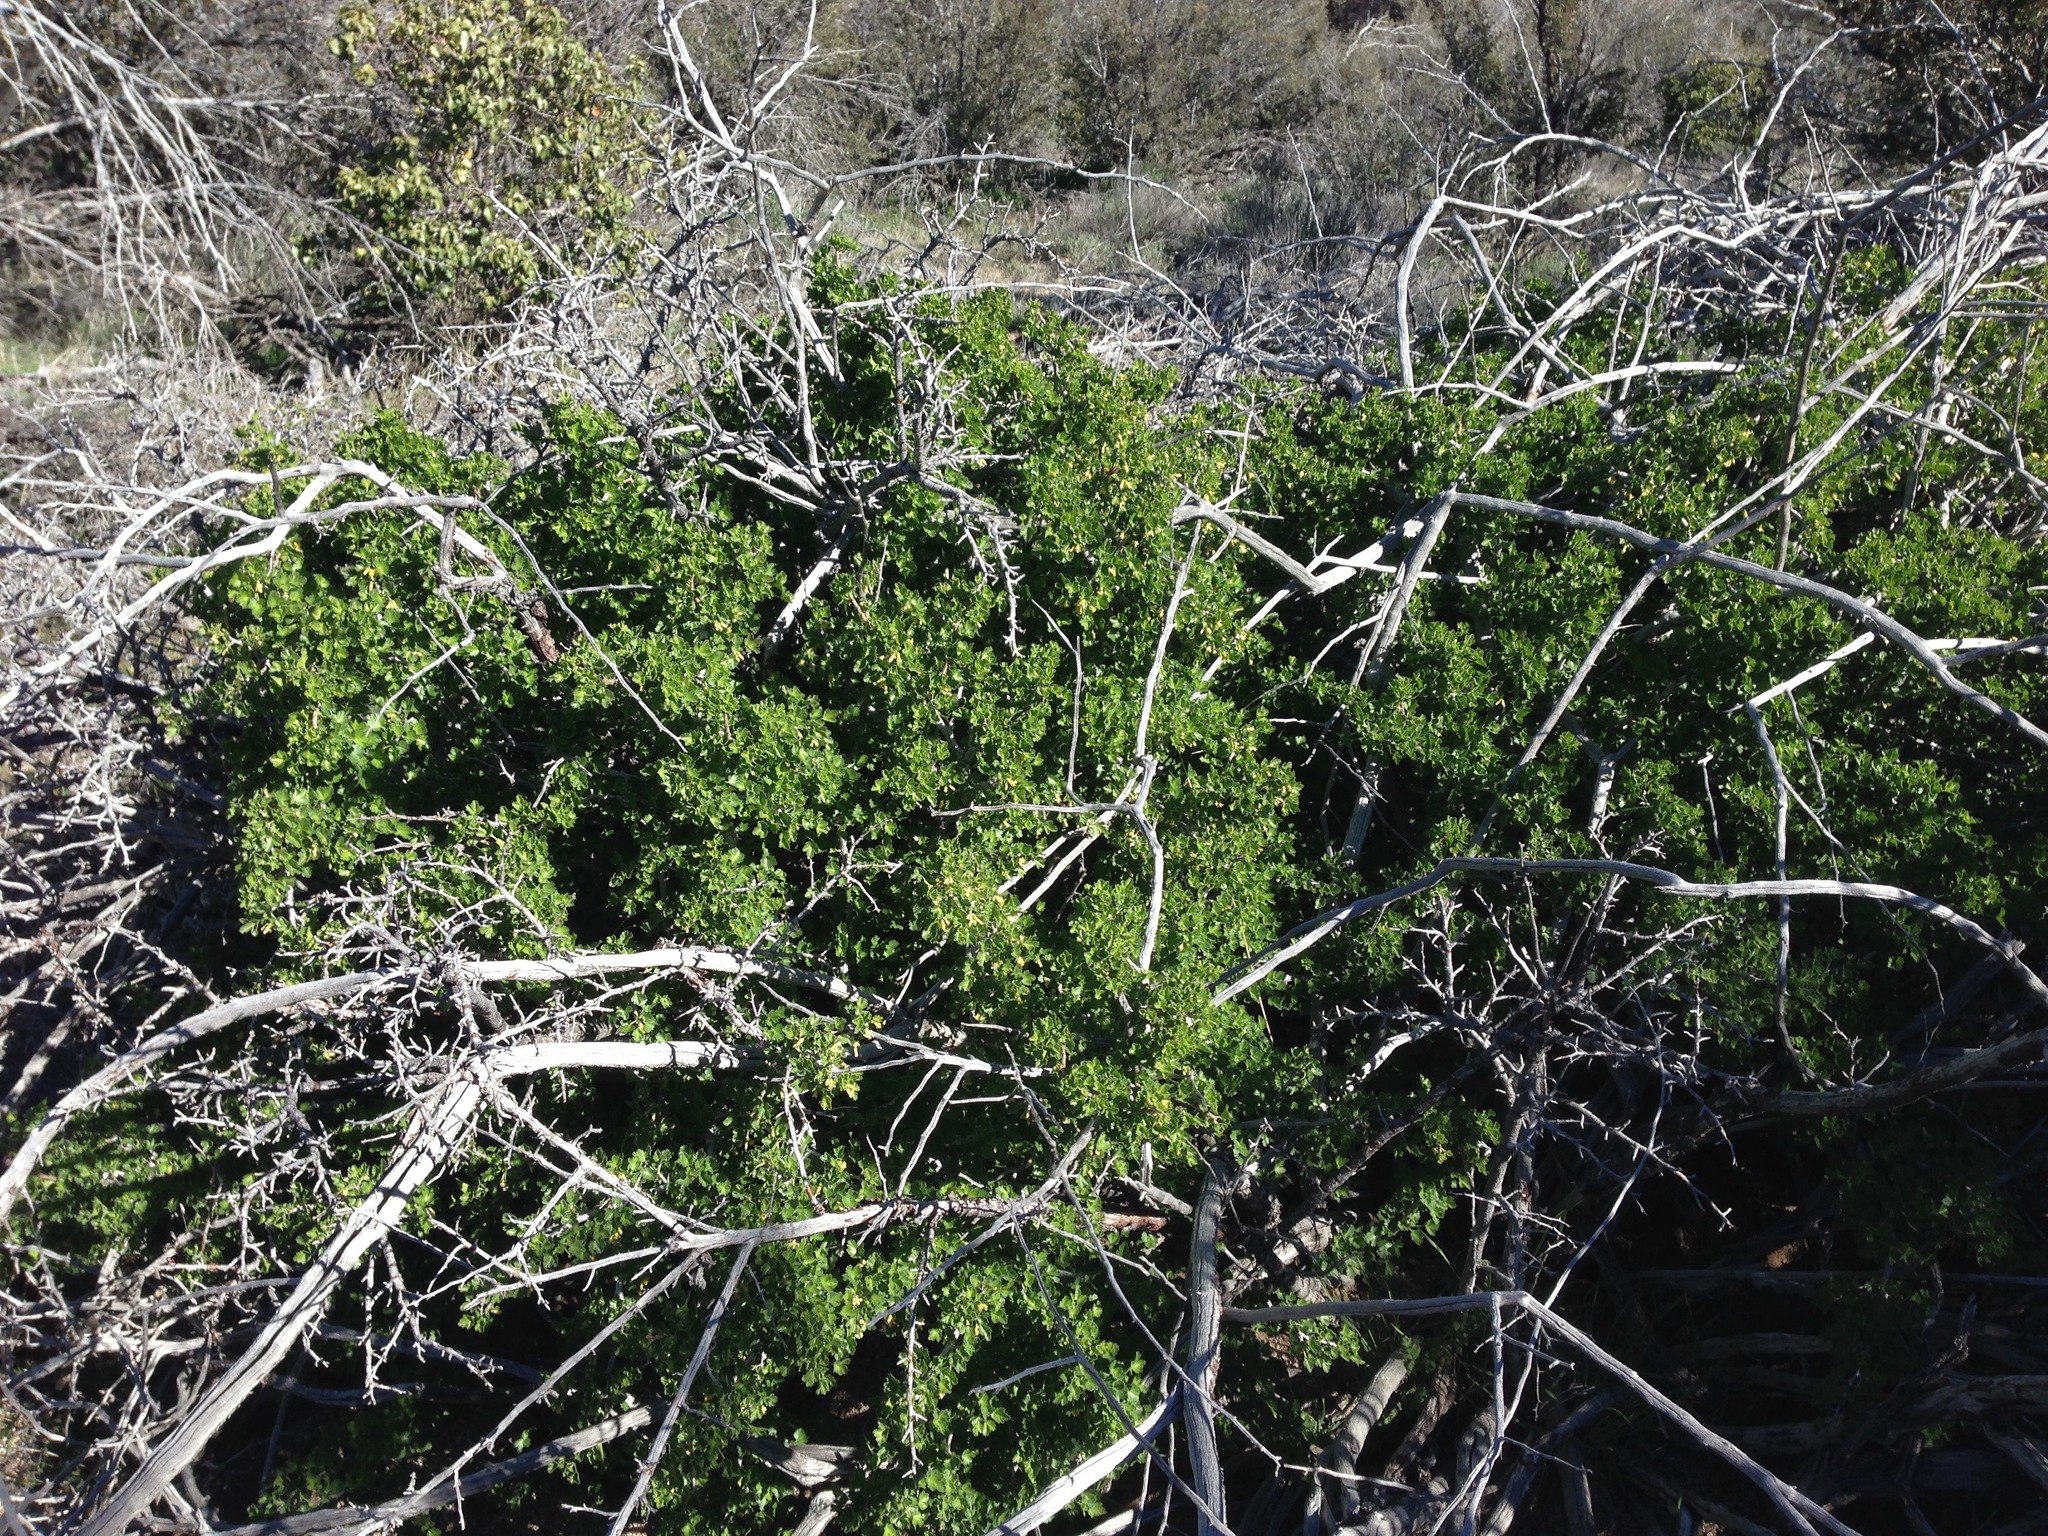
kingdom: Plantae
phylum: Tracheophyta
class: Magnoliopsida
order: Saxifragales
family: Grossulariaceae
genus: Ribes
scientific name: Ribes quercetorum
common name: Oak gooseberry
